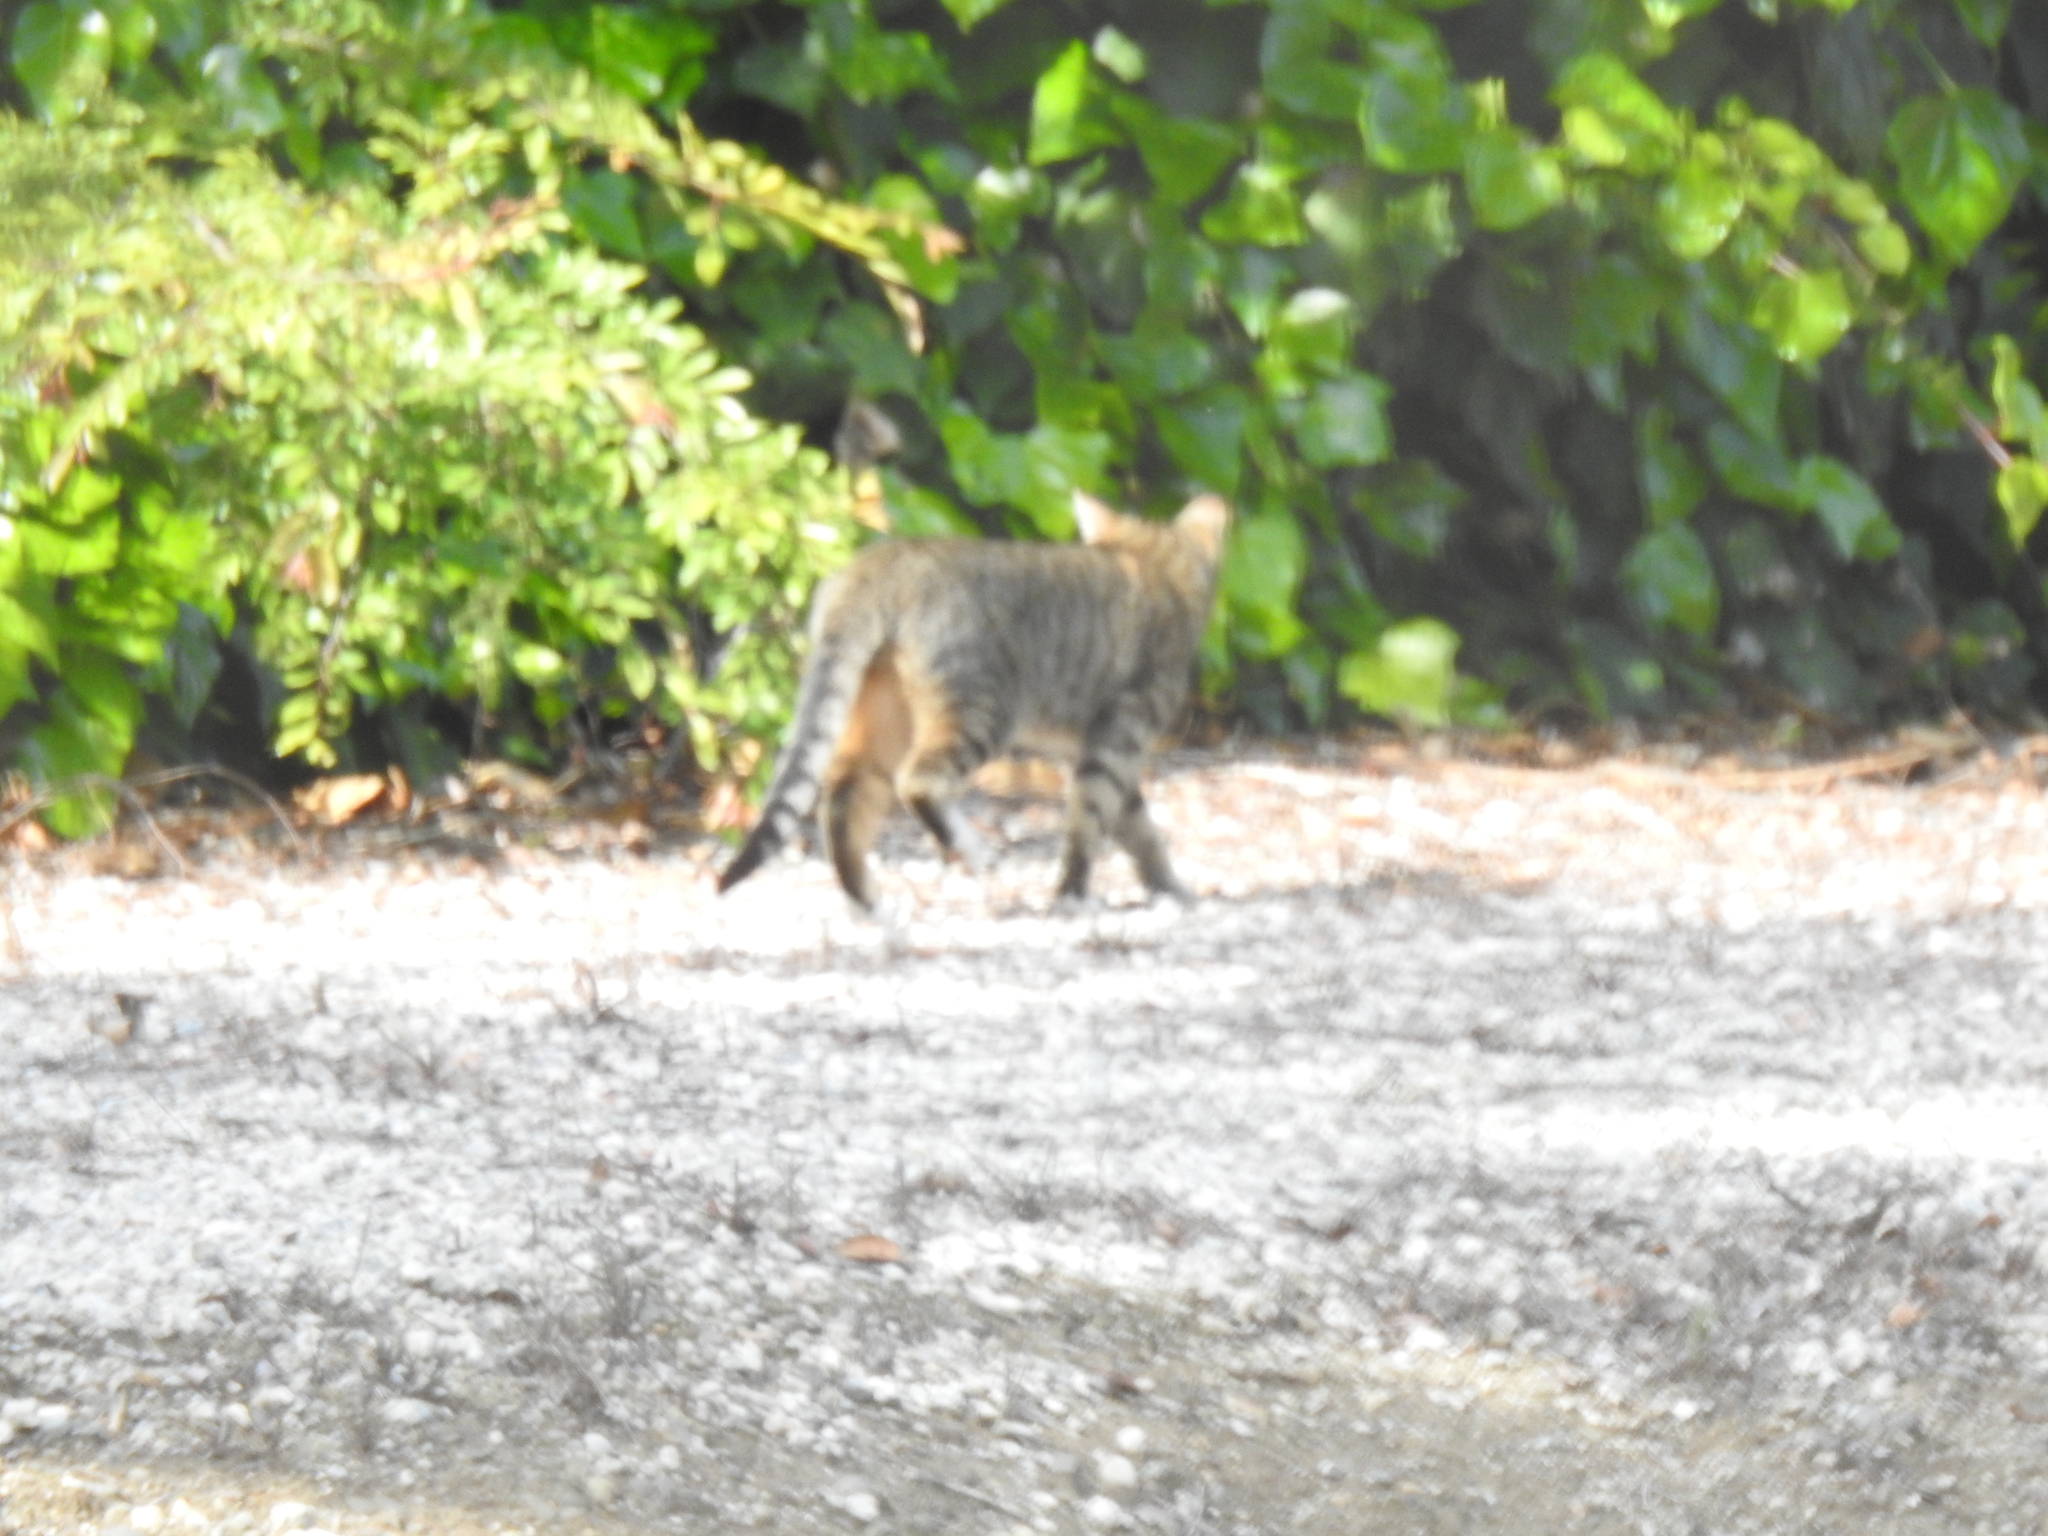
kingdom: Animalia
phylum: Chordata
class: Mammalia
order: Carnivora
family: Felidae
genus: Felis
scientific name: Felis catus
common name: Domestic cat
